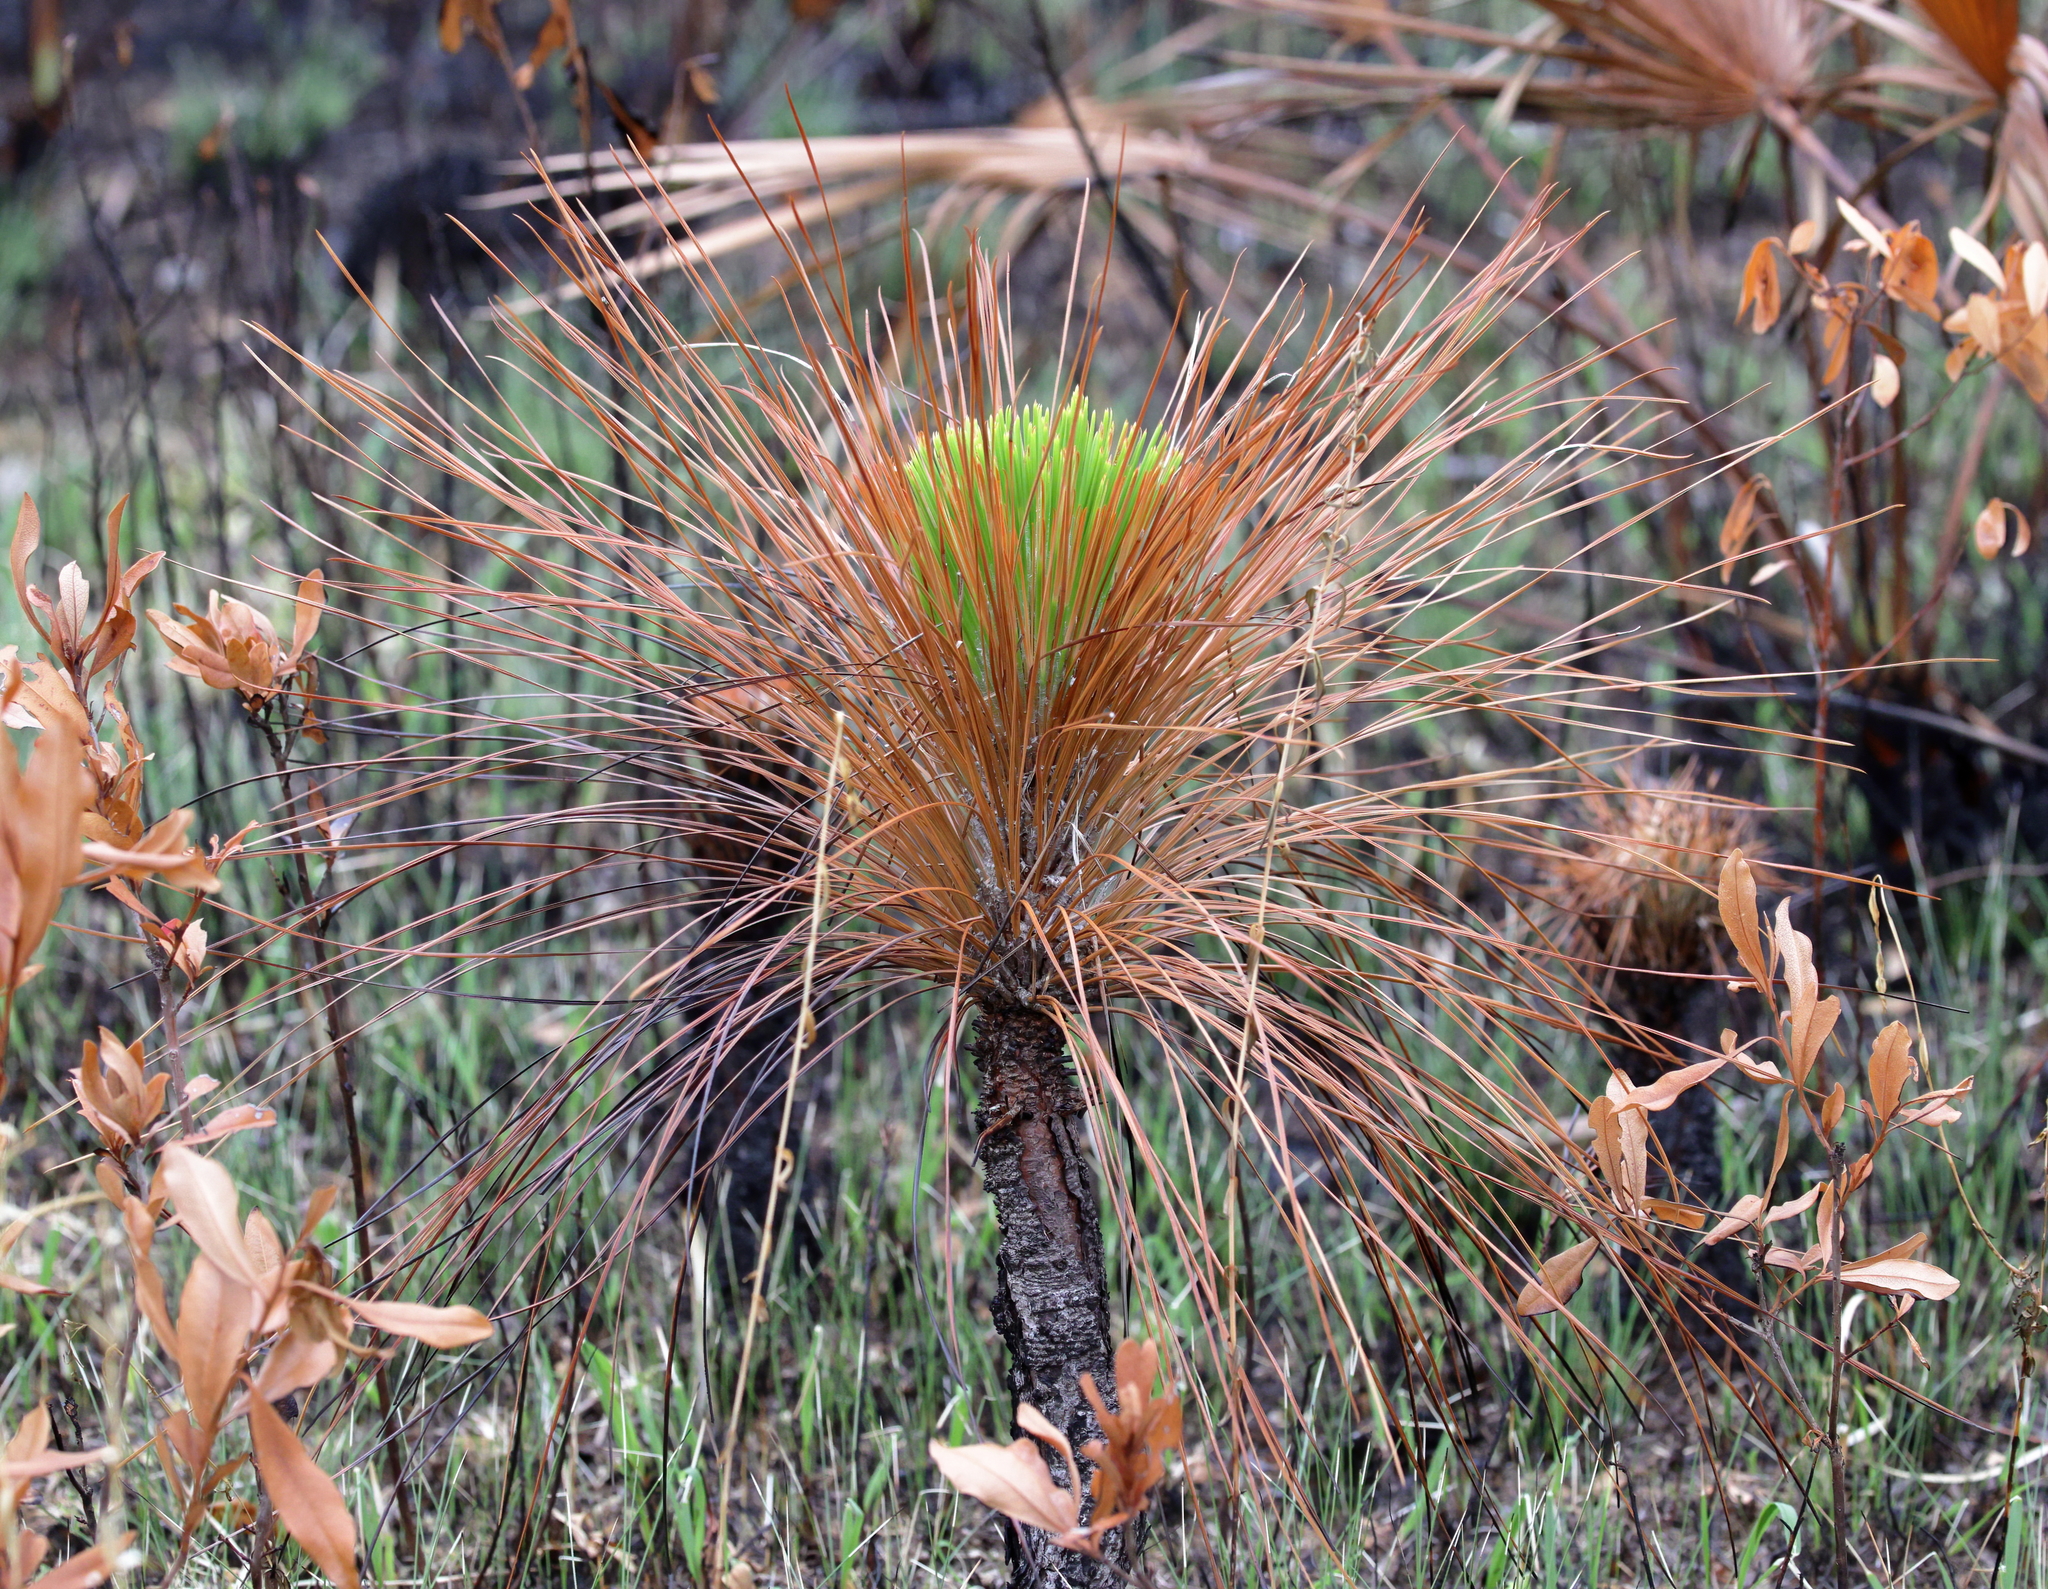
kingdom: Plantae
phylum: Tracheophyta
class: Pinopsida
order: Pinales
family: Pinaceae
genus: Pinus
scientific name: Pinus palustris
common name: Longleaf pine
